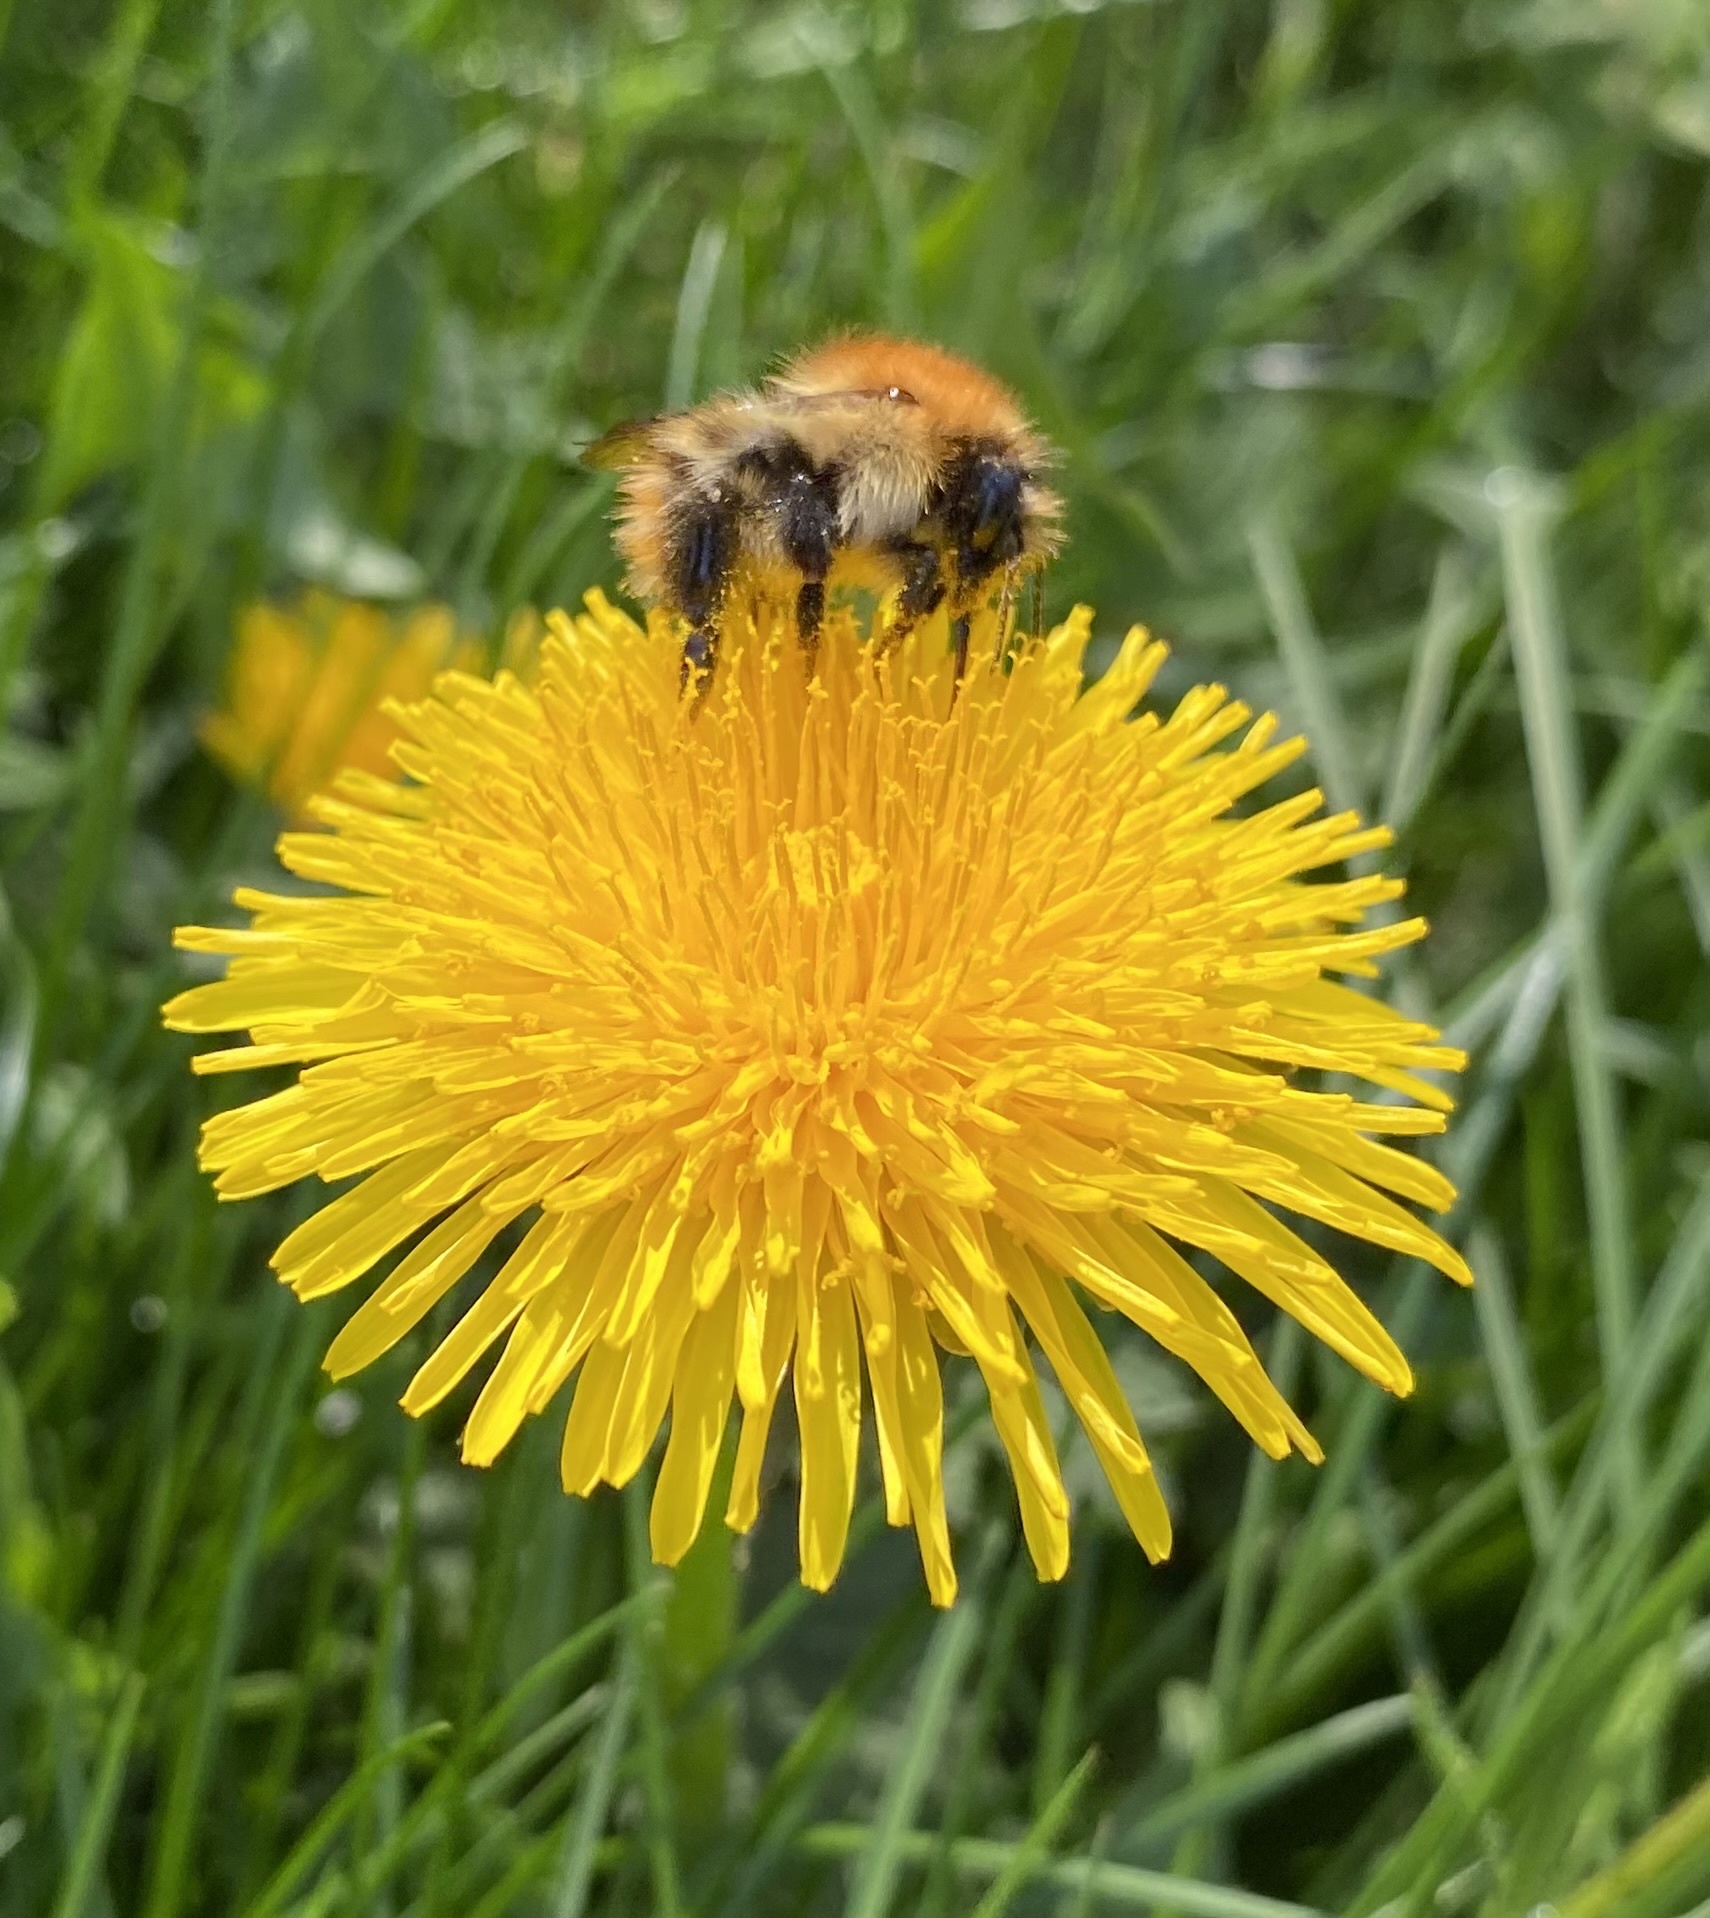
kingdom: Animalia
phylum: Arthropoda
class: Insecta
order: Hymenoptera
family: Apidae
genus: Bombus
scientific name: Bombus pascuorum
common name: Common carder bee
